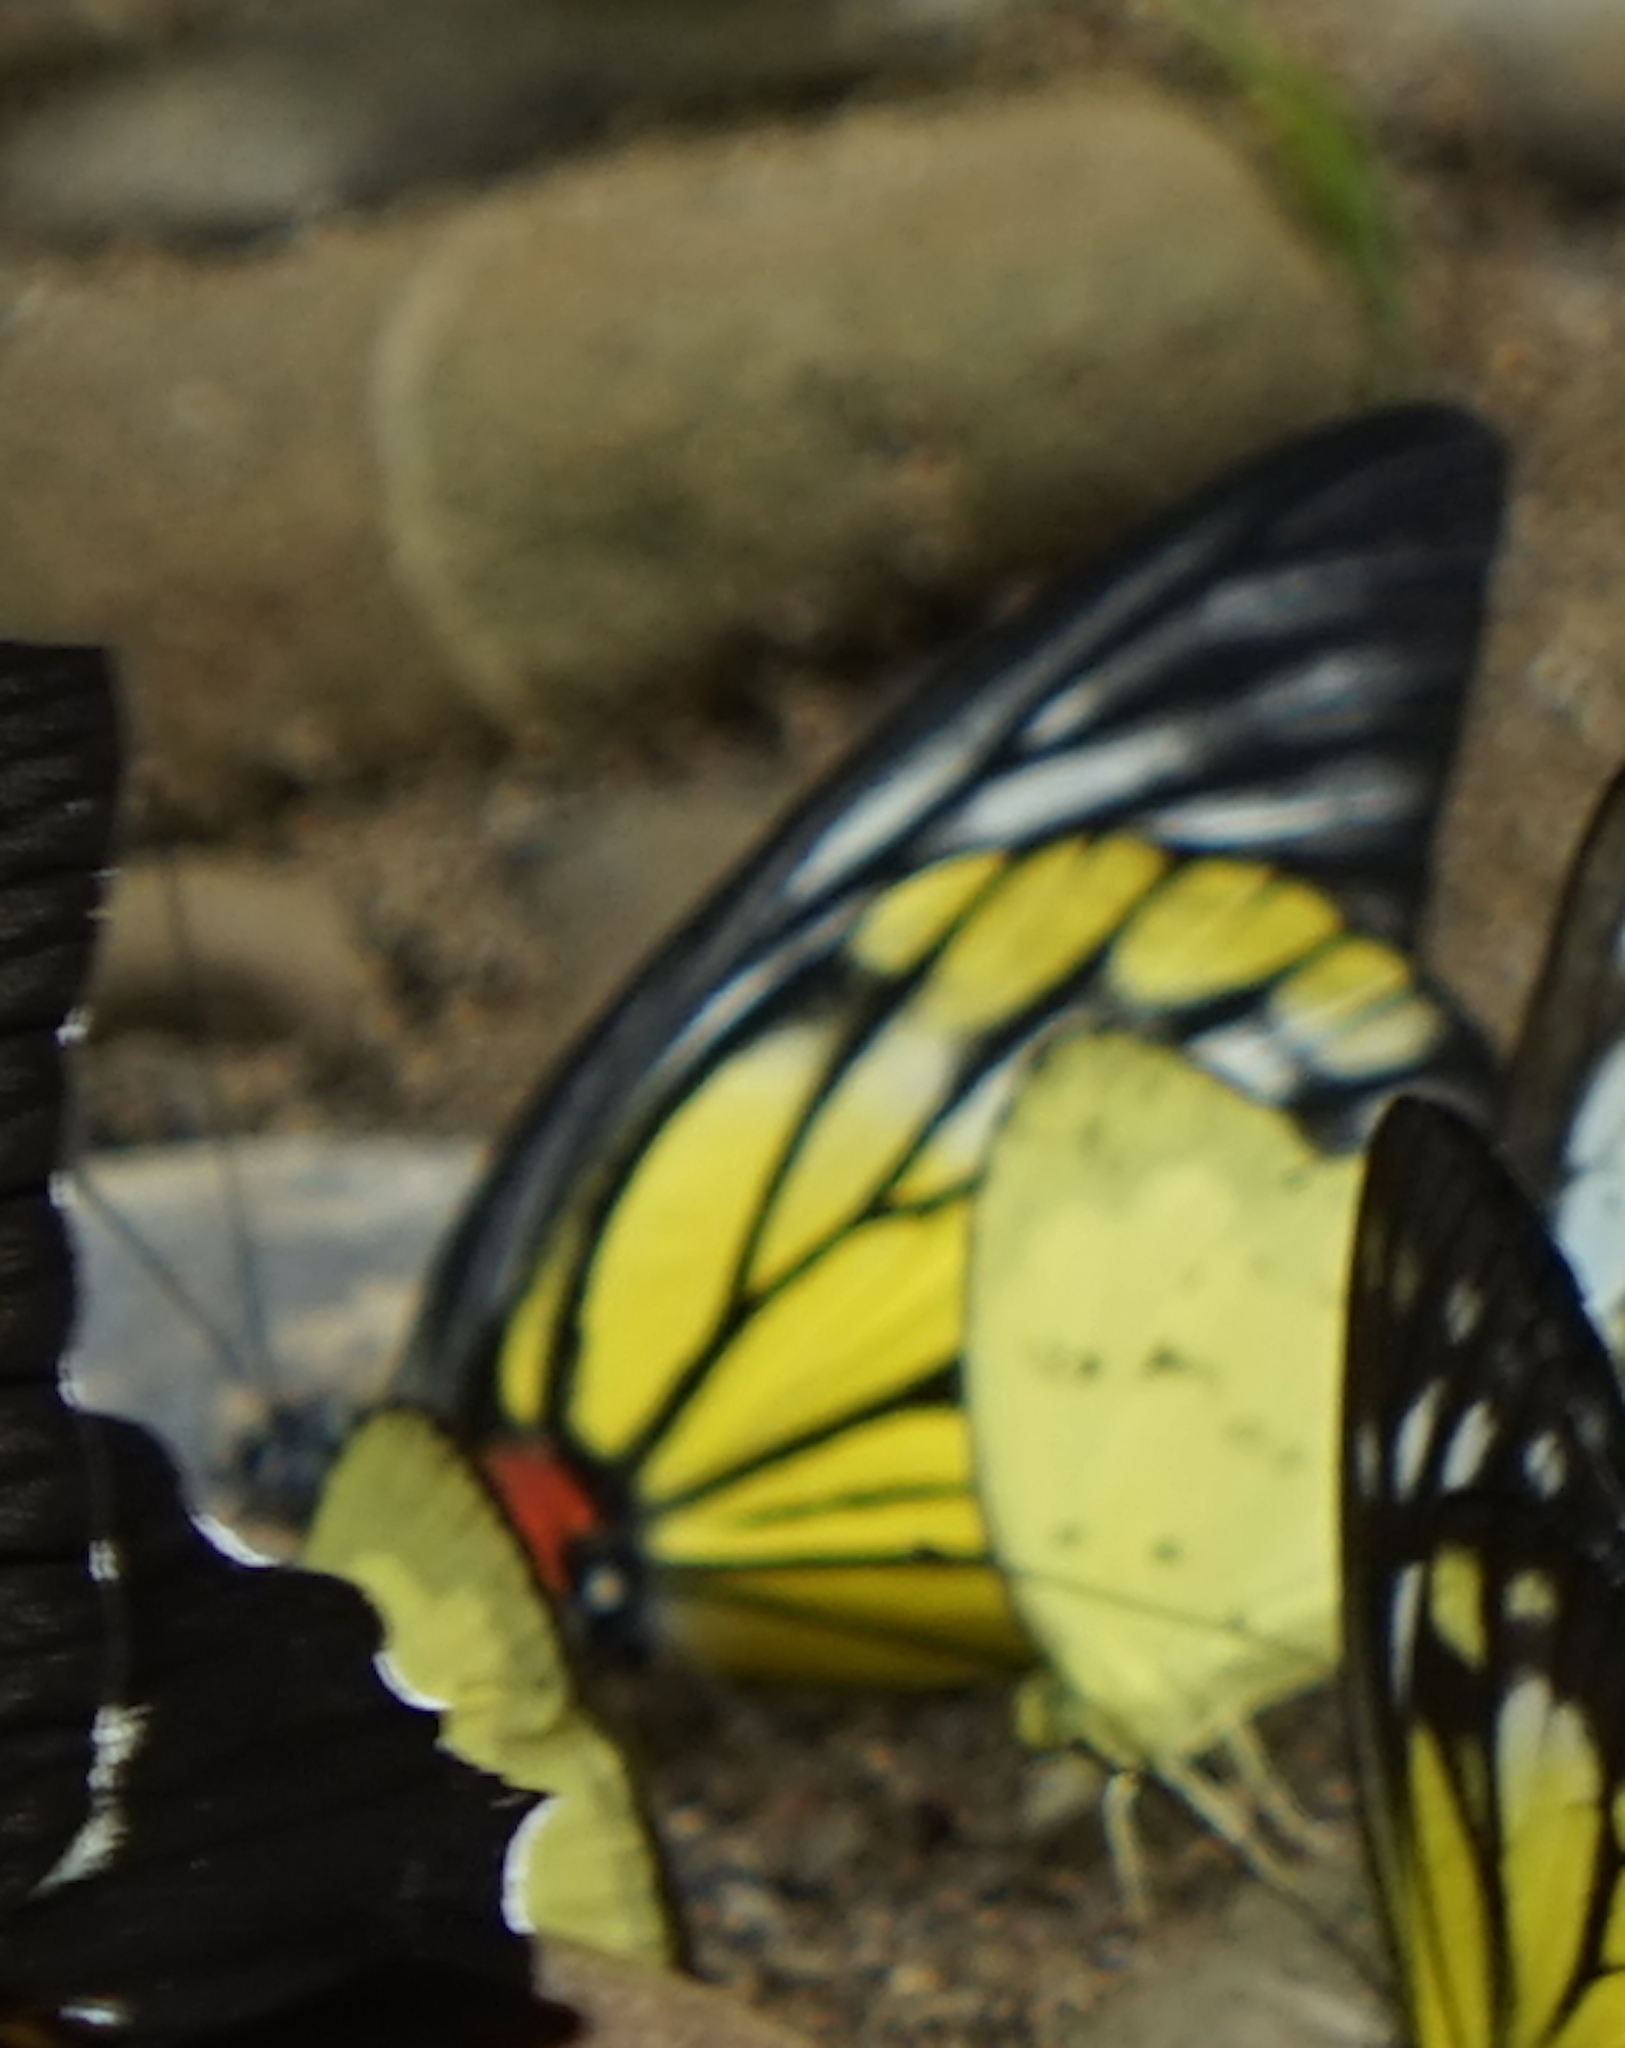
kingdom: Animalia
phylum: Arthropoda
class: Insecta
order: Lepidoptera
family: Pieridae
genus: Prioneris
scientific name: Prioneris philonome
